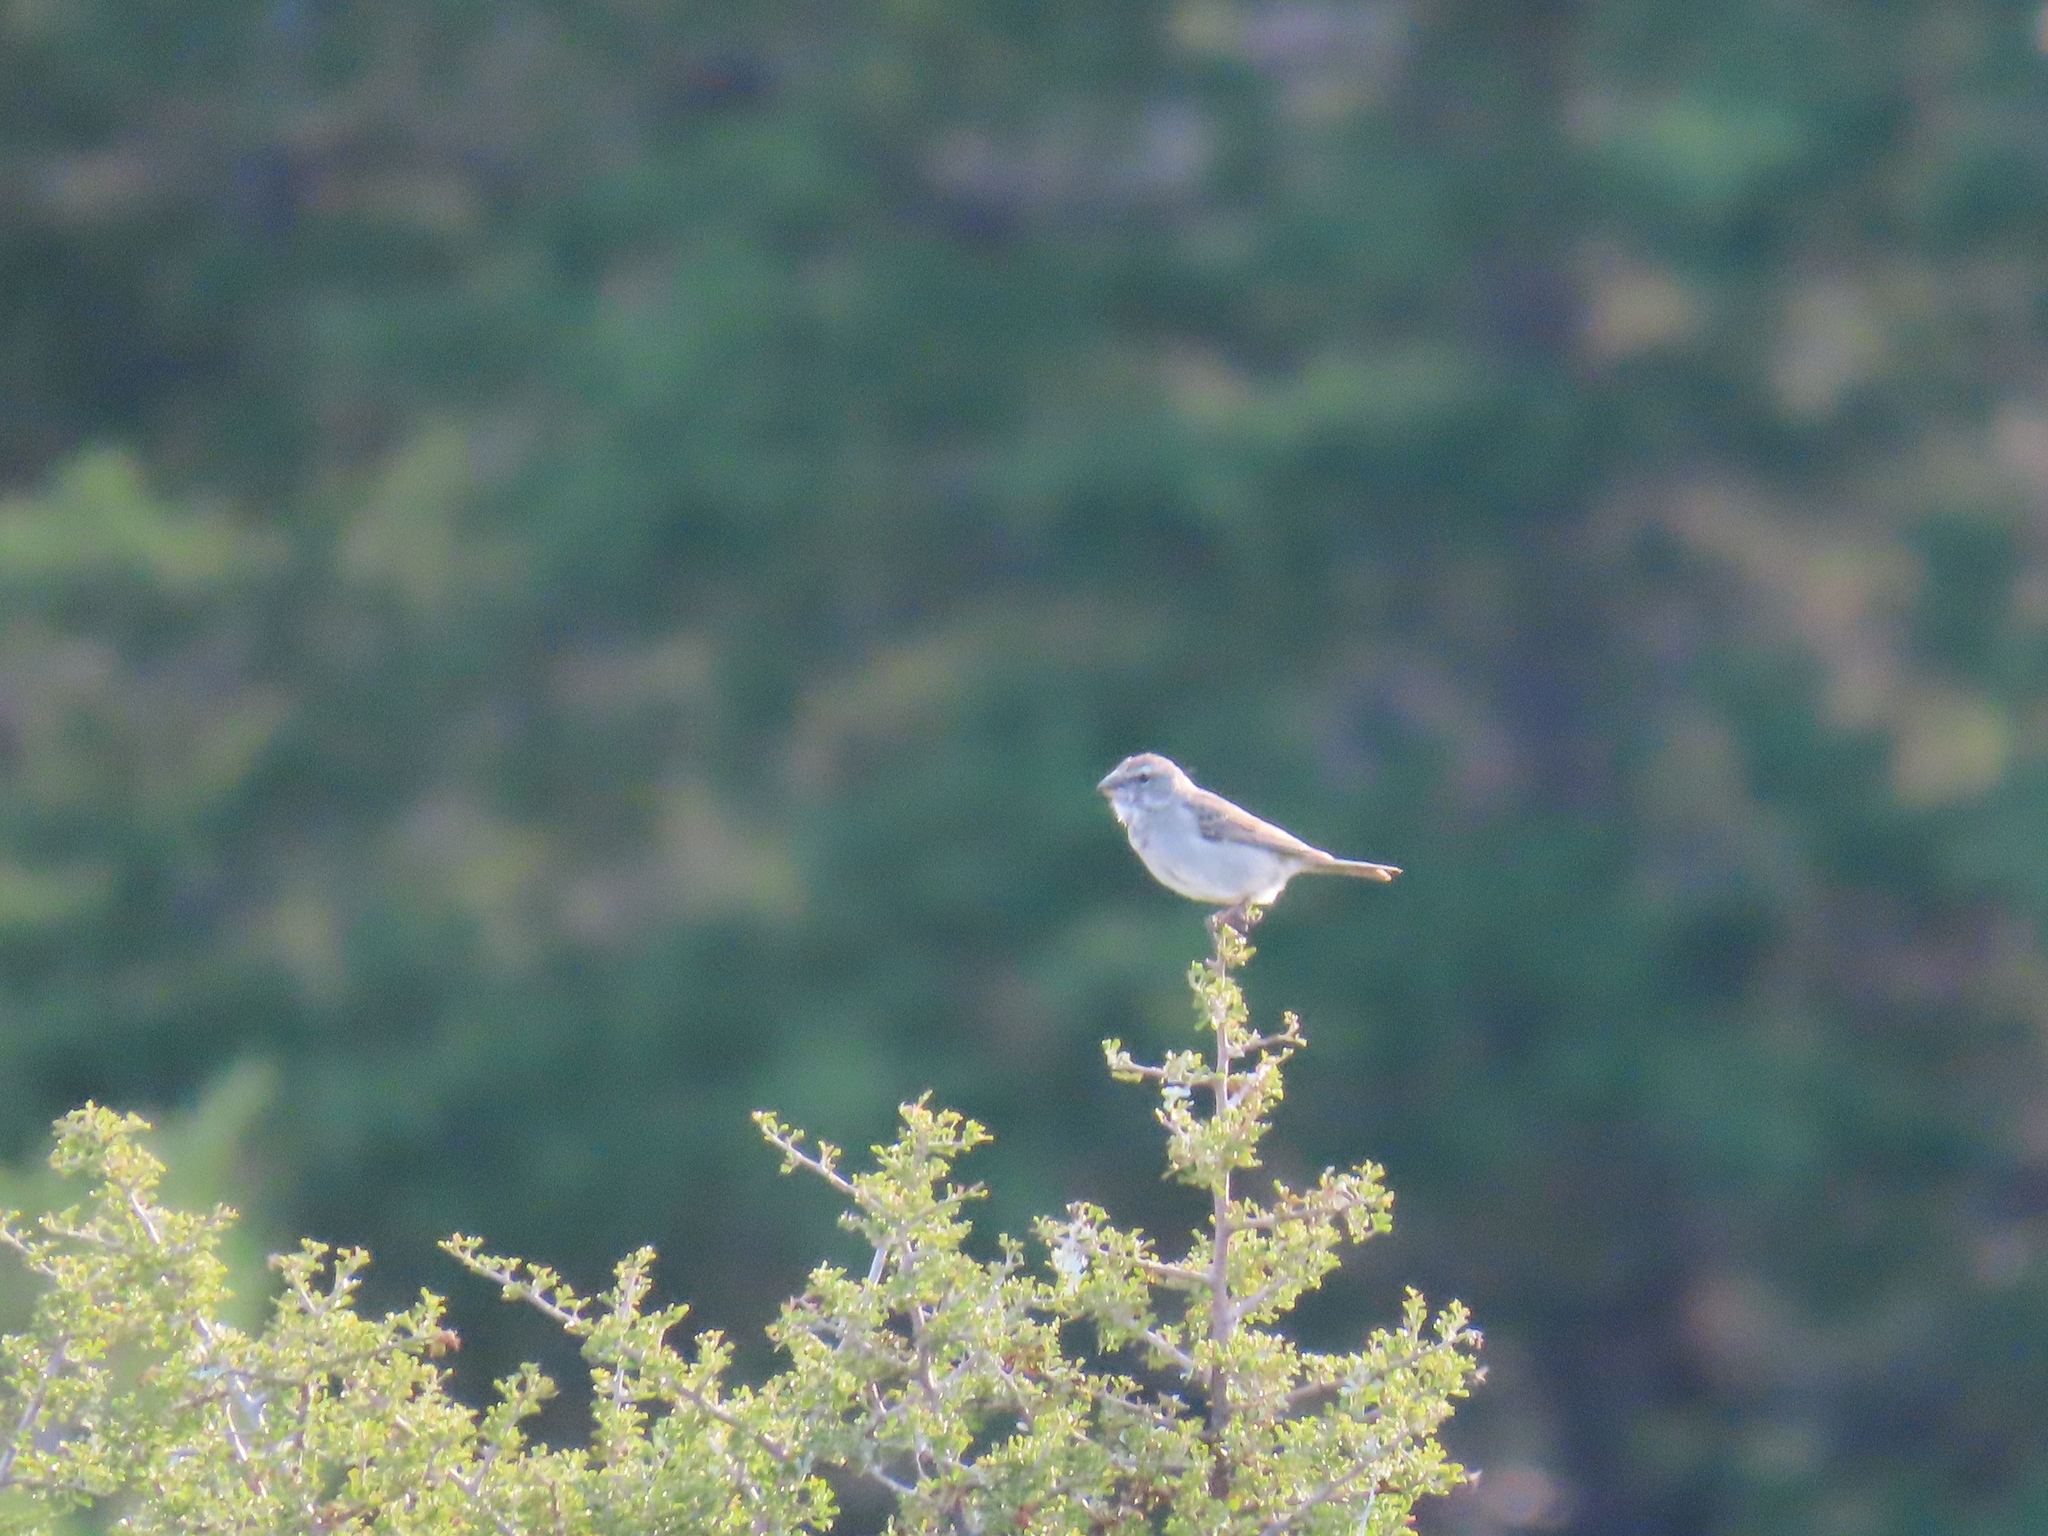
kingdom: Animalia
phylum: Chordata
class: Aves
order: Passeriformes
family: Fringillidae
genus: Crithagra
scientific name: Crithagra albogularis
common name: White-throated canary
